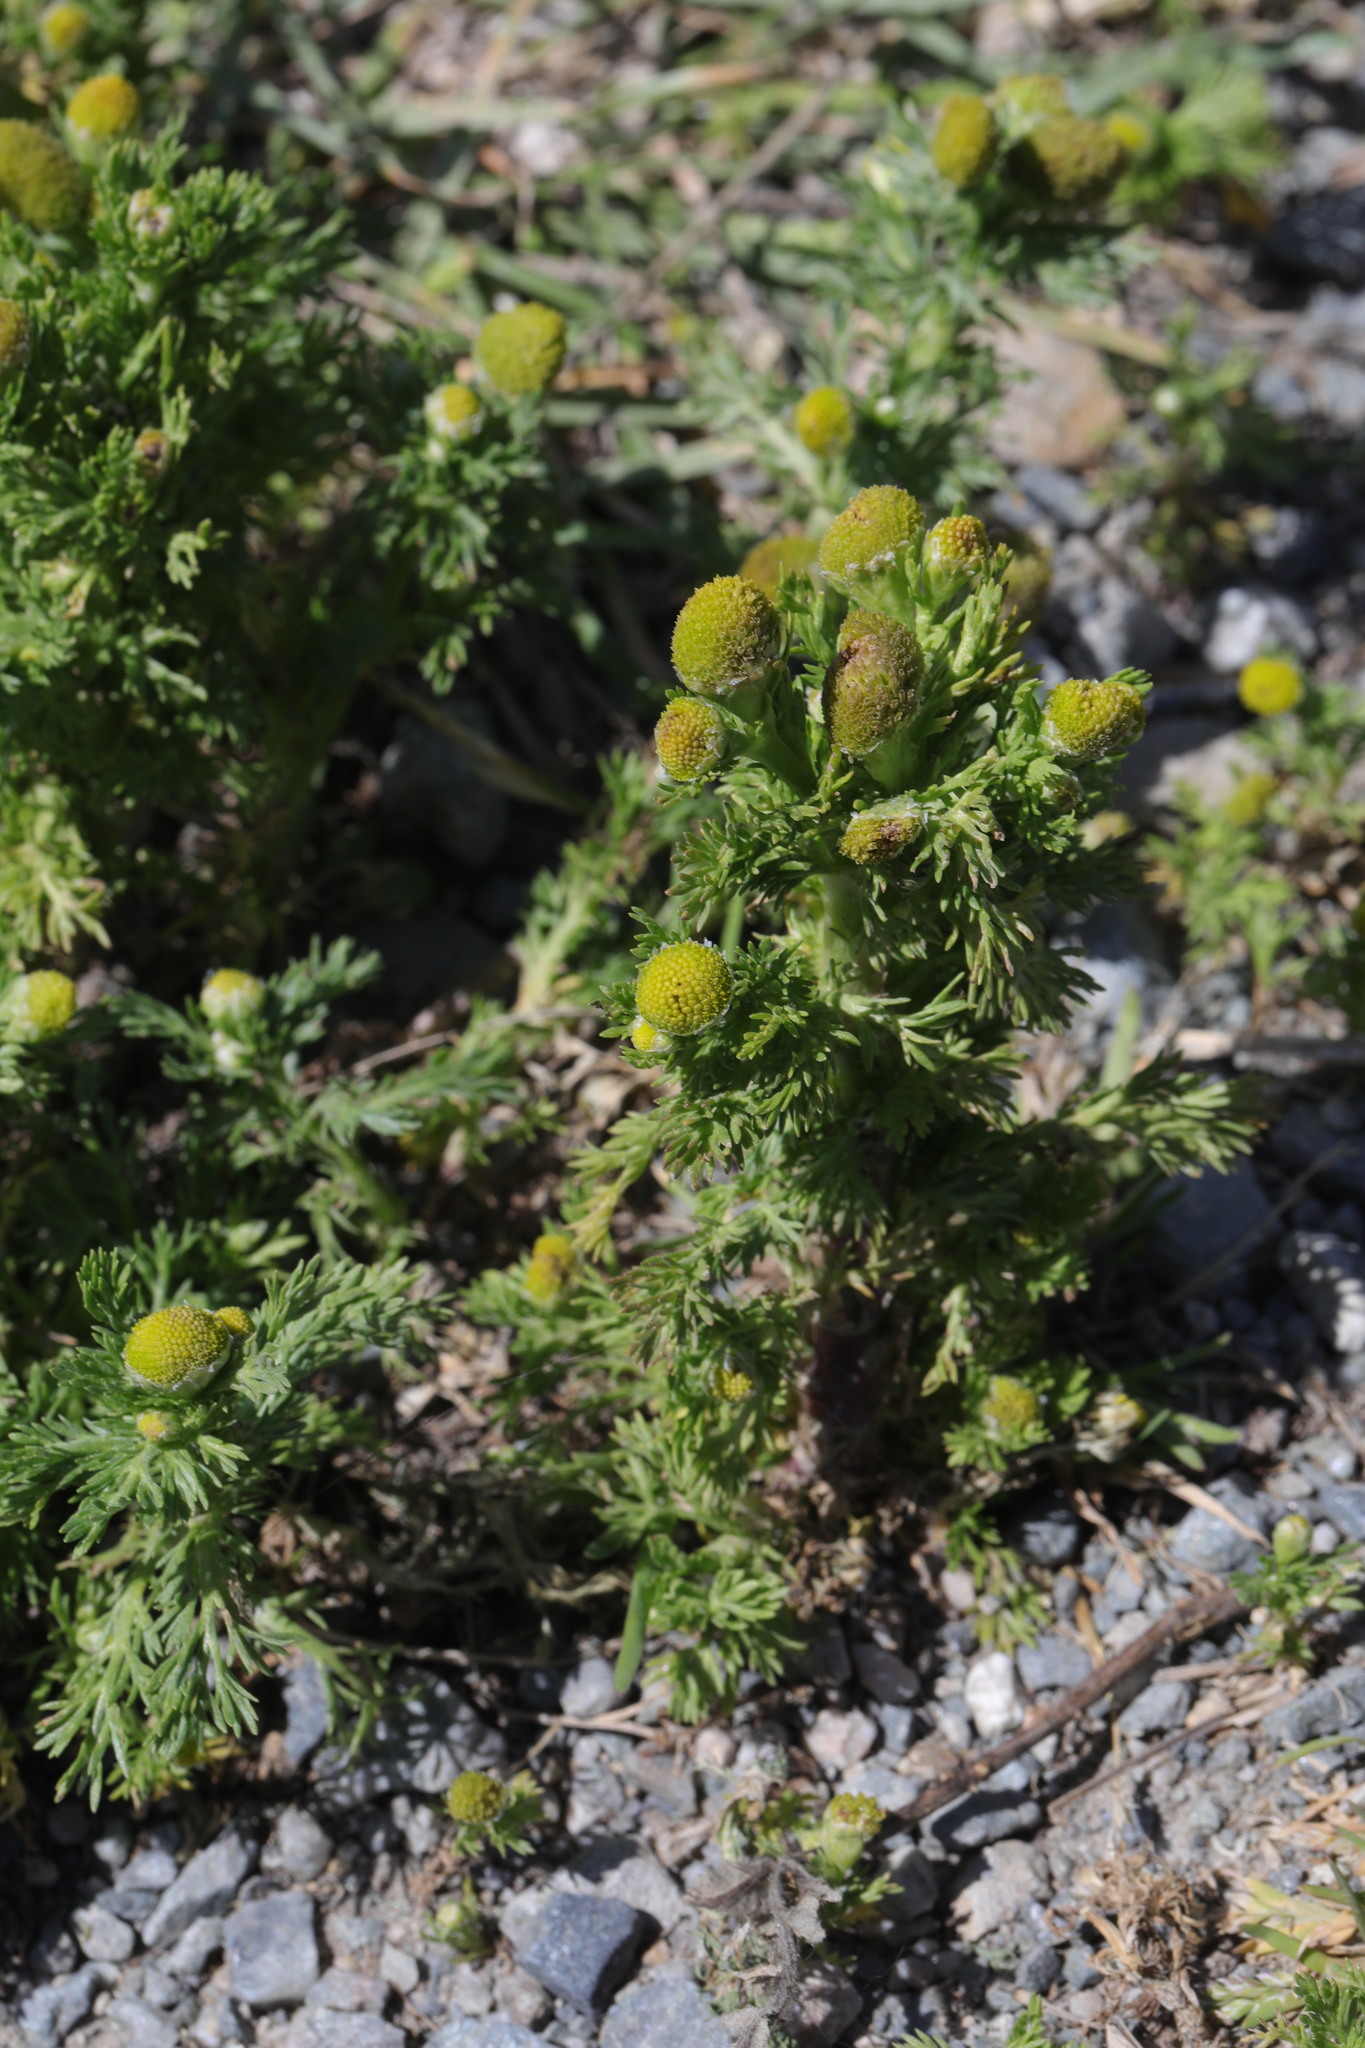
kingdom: Plantae
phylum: Tracheophyta
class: Magnoliopsida
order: Asterales
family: Asteraceae
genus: Matricaria
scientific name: Matricaria discoidea
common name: Disc mayweed
